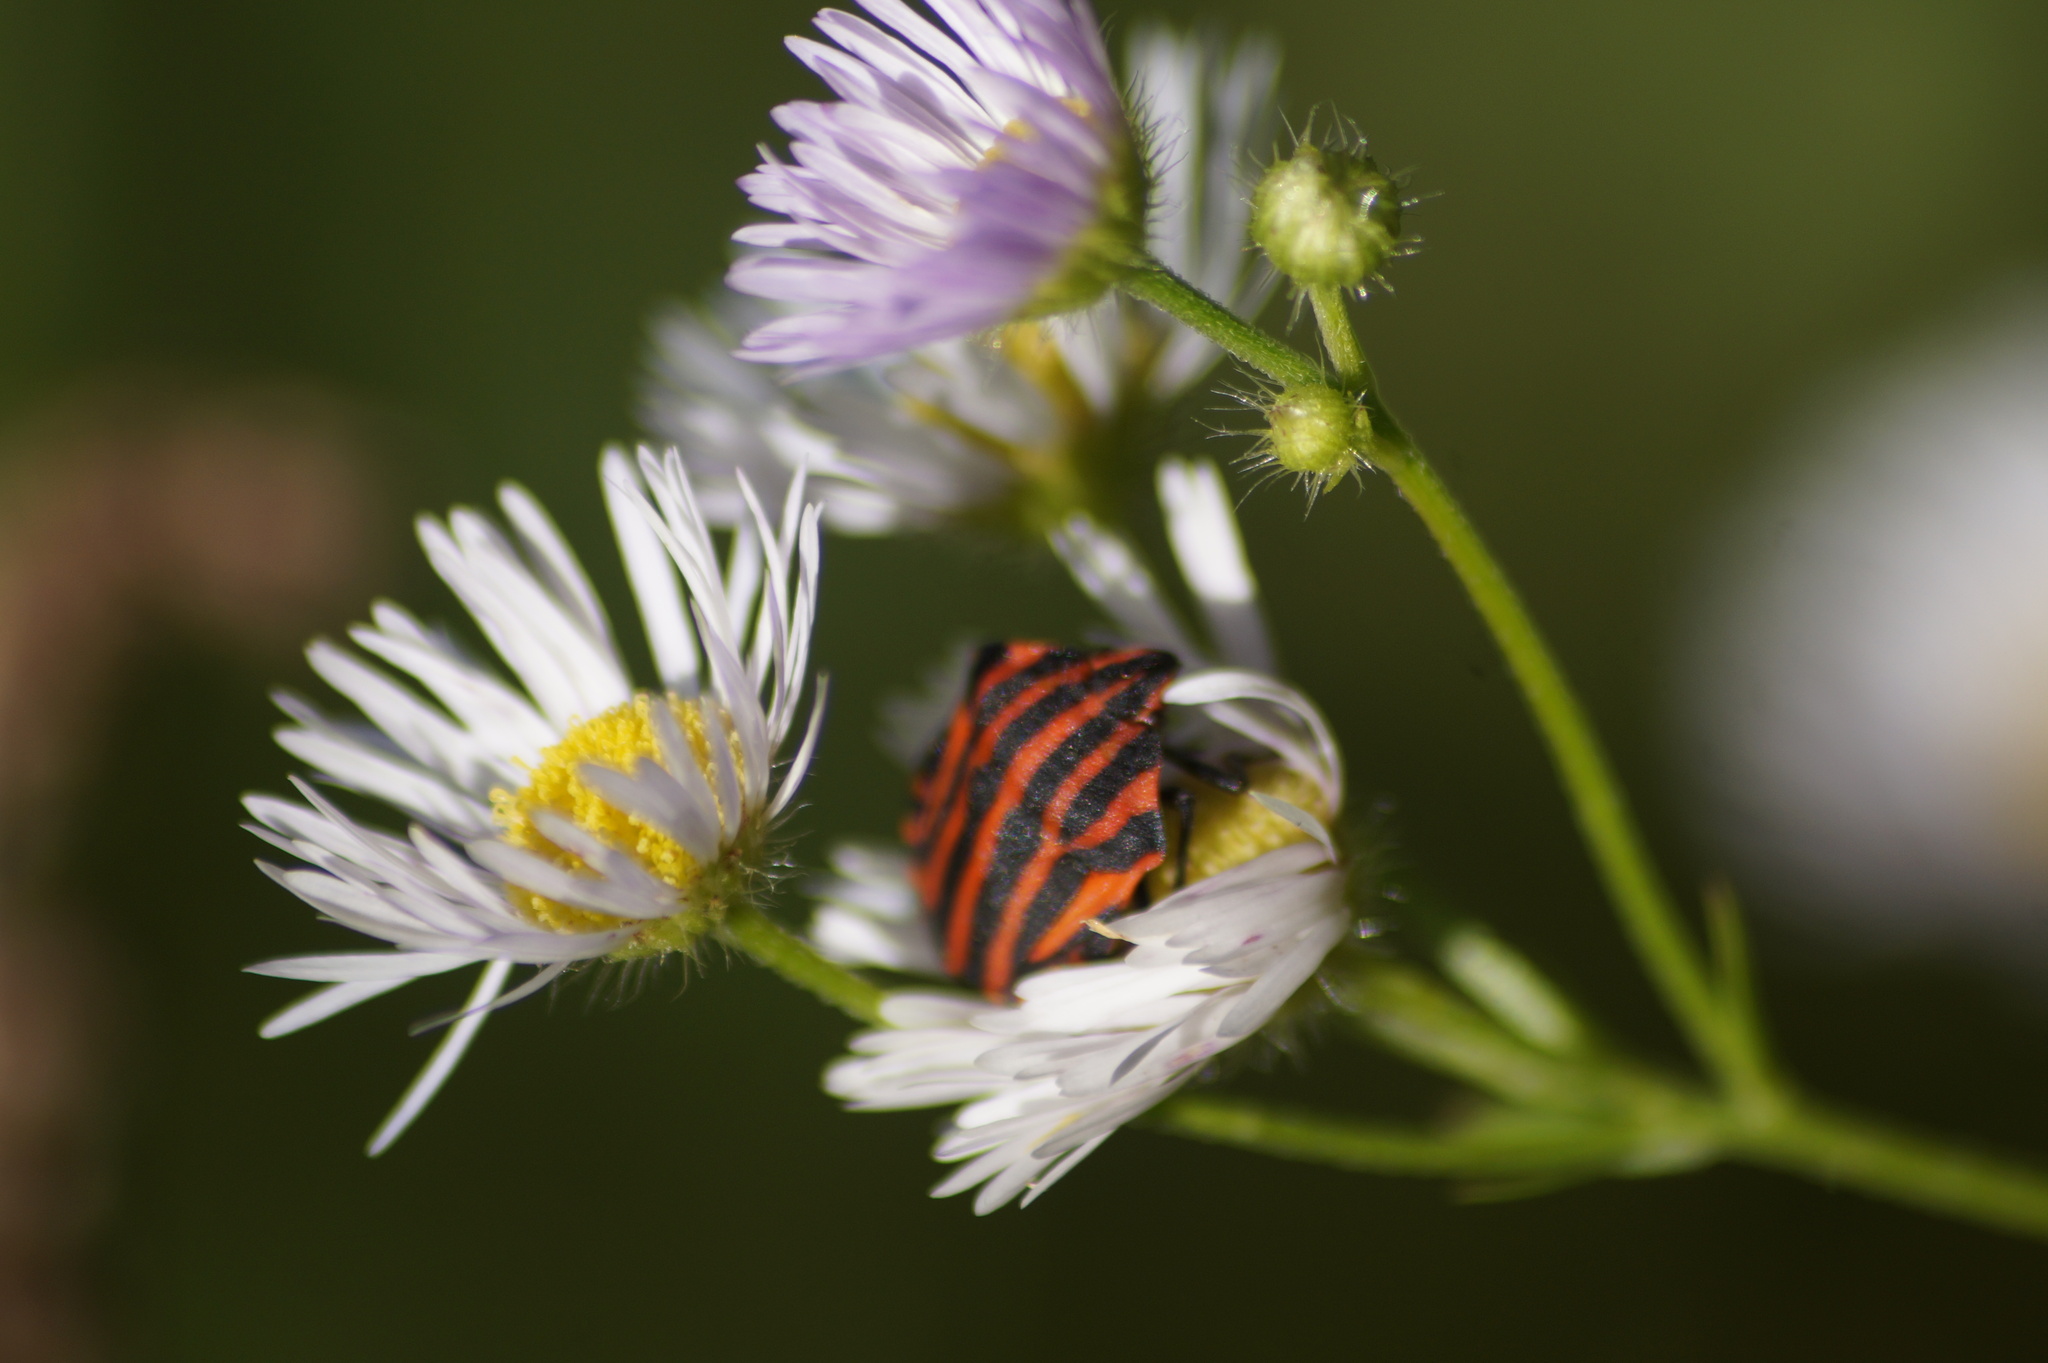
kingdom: Animalia
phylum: Arthropoda
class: Insecta
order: Hemiptera
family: Pentatomidae
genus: Graphosoma
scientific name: Graphosoma italicum
